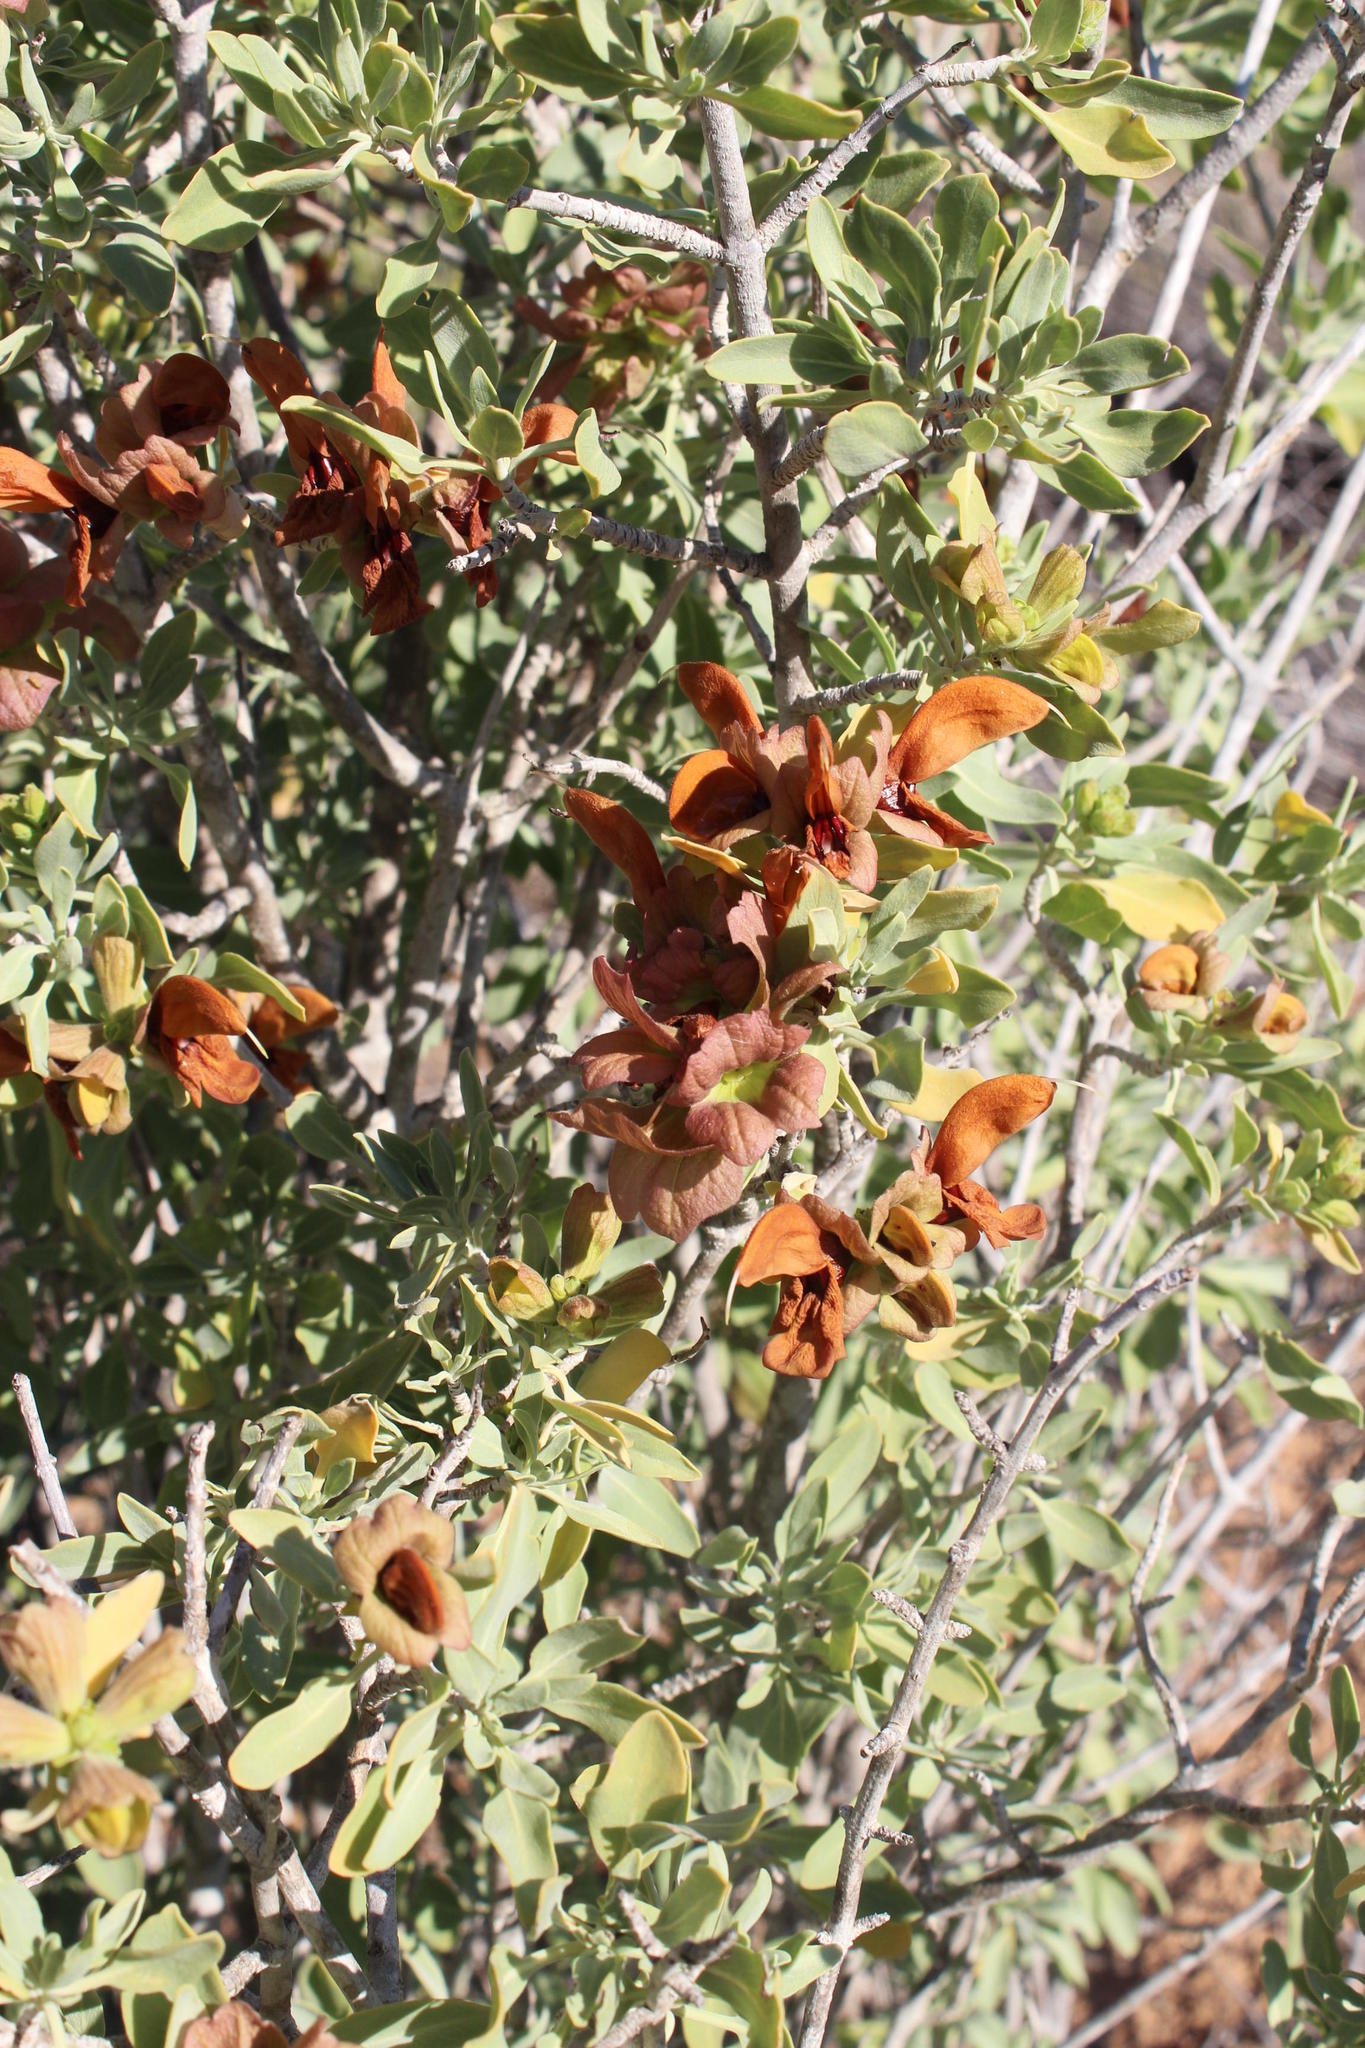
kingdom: Plantae
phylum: Tracheophyta
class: Magnoliopsida
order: Lamiales
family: Lamiaceae
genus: Salvia
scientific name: Salvia aurea
